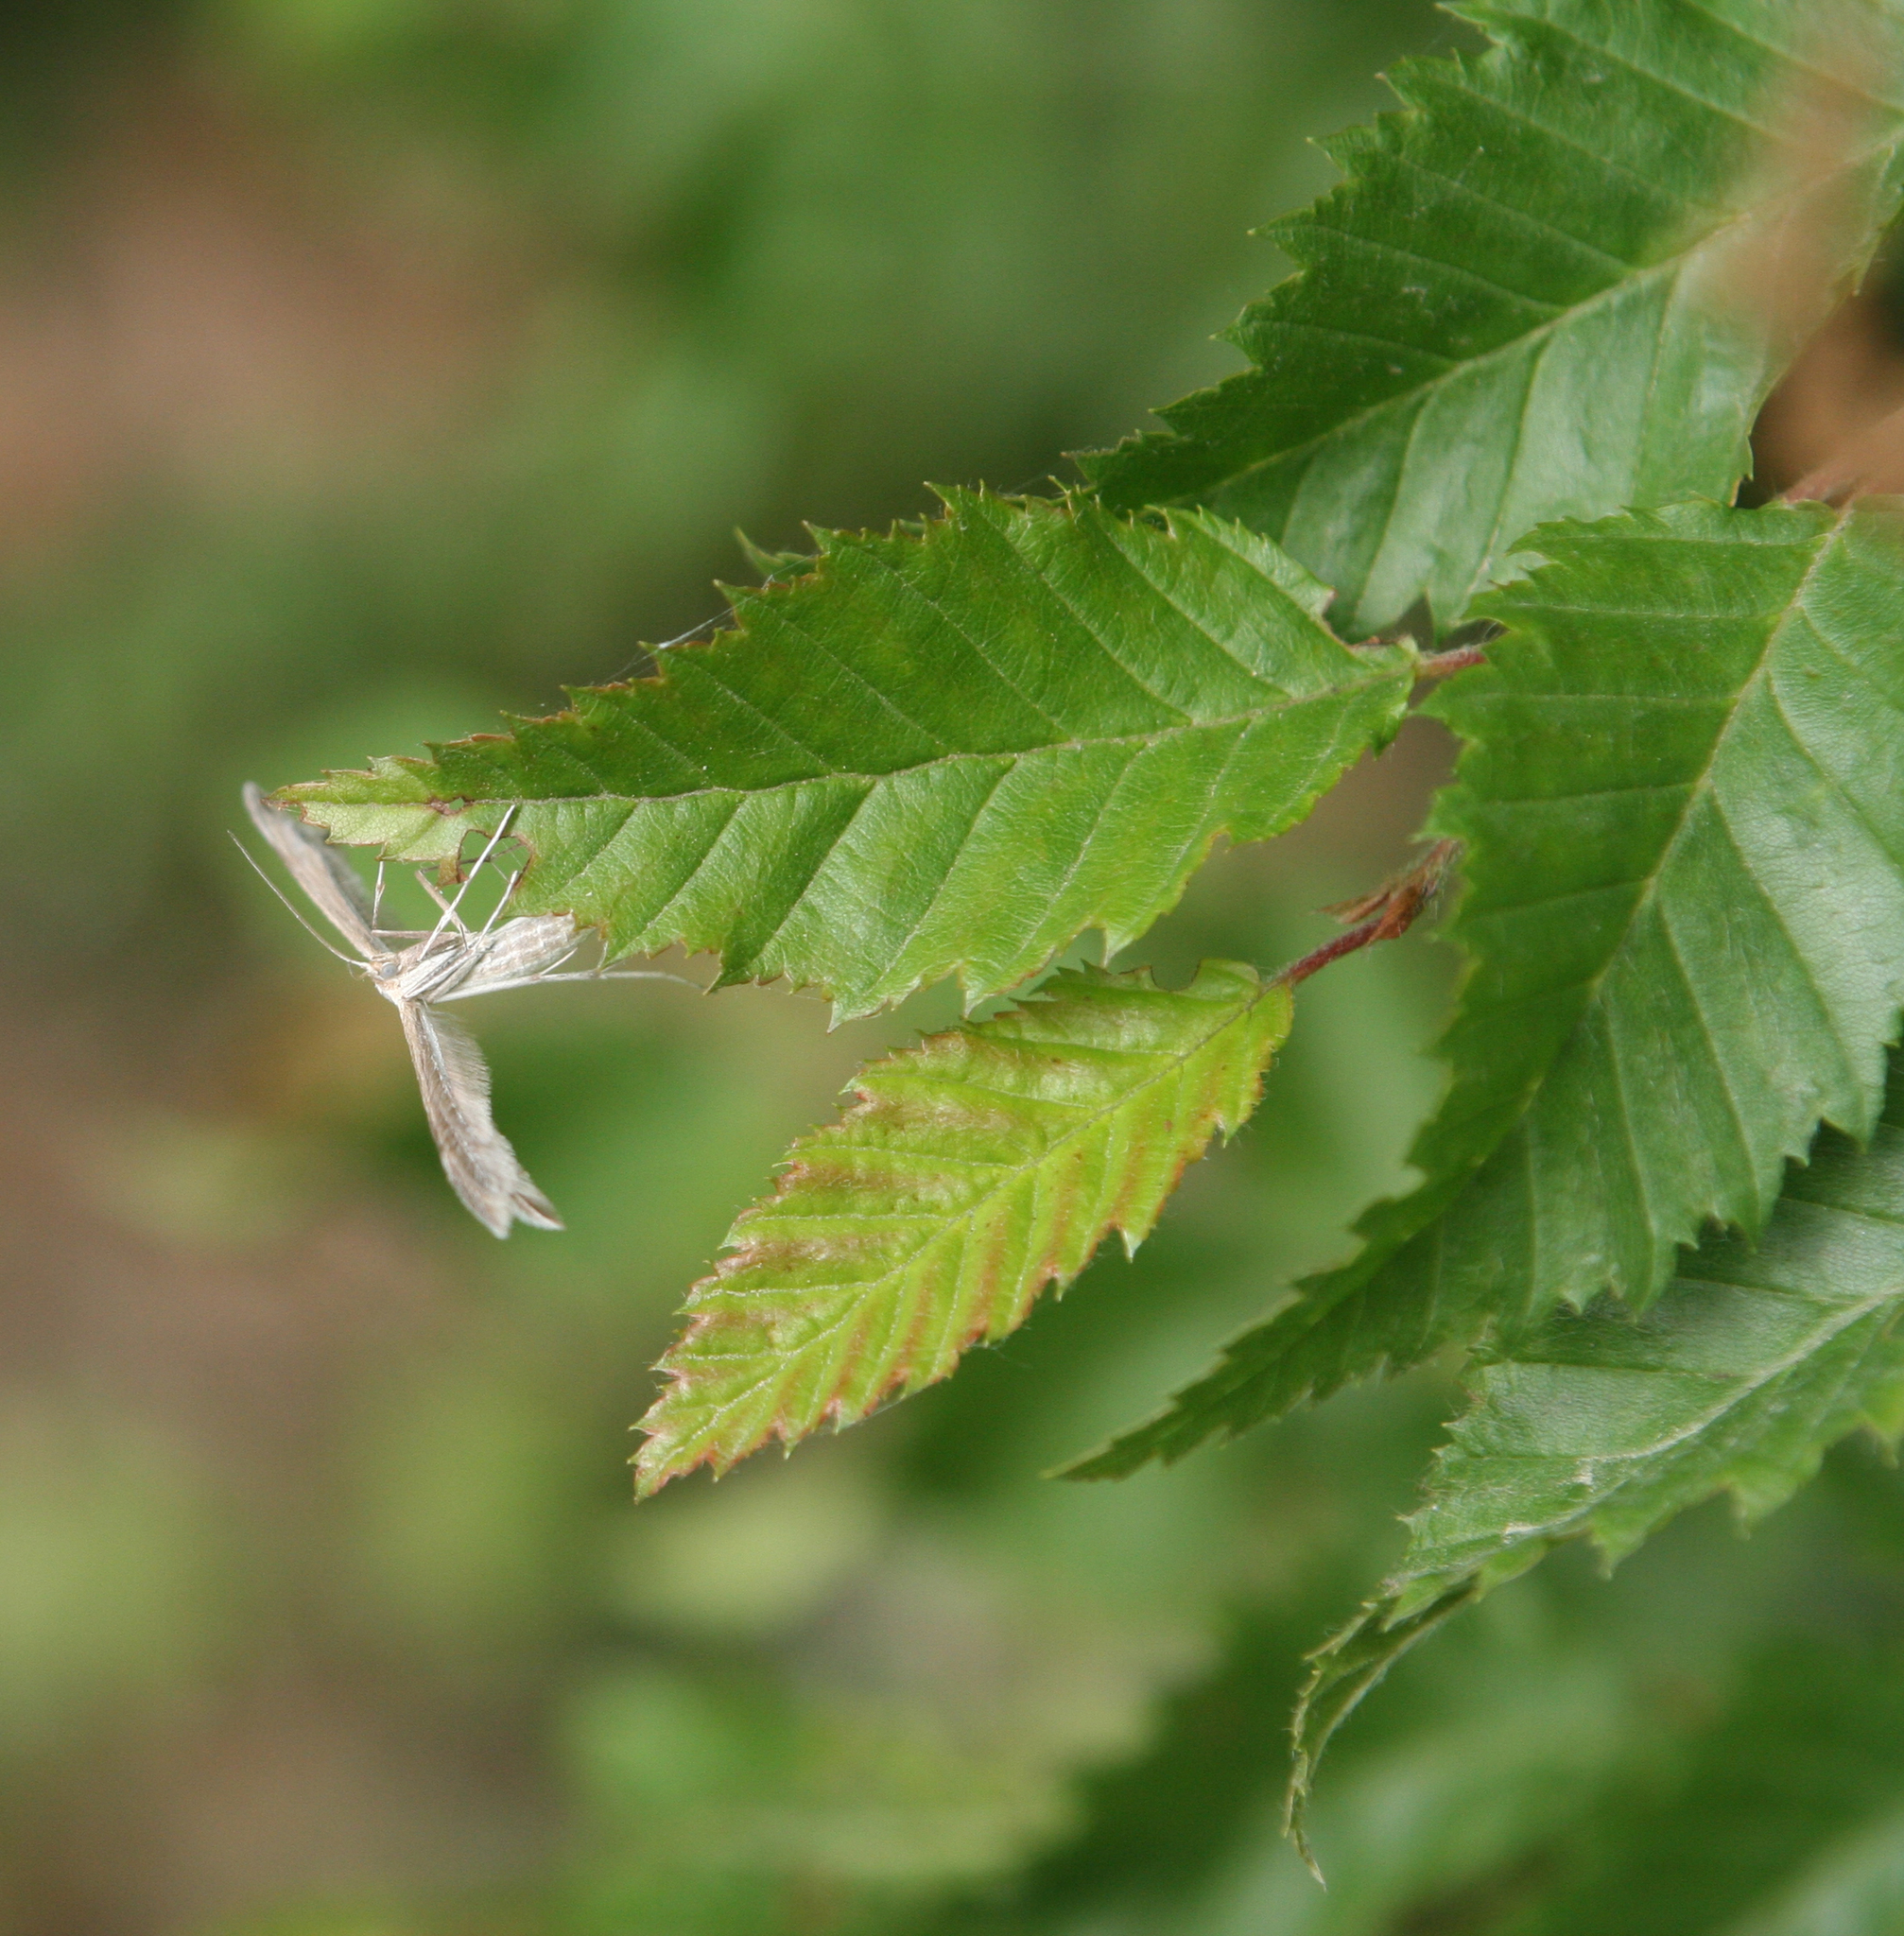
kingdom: Plantae
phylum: Tracheophyta
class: Magnoliopsida
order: Fagales
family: Betulaceae
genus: Carpinus
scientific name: Carpinus orientalis
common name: Eastern hornbeam
